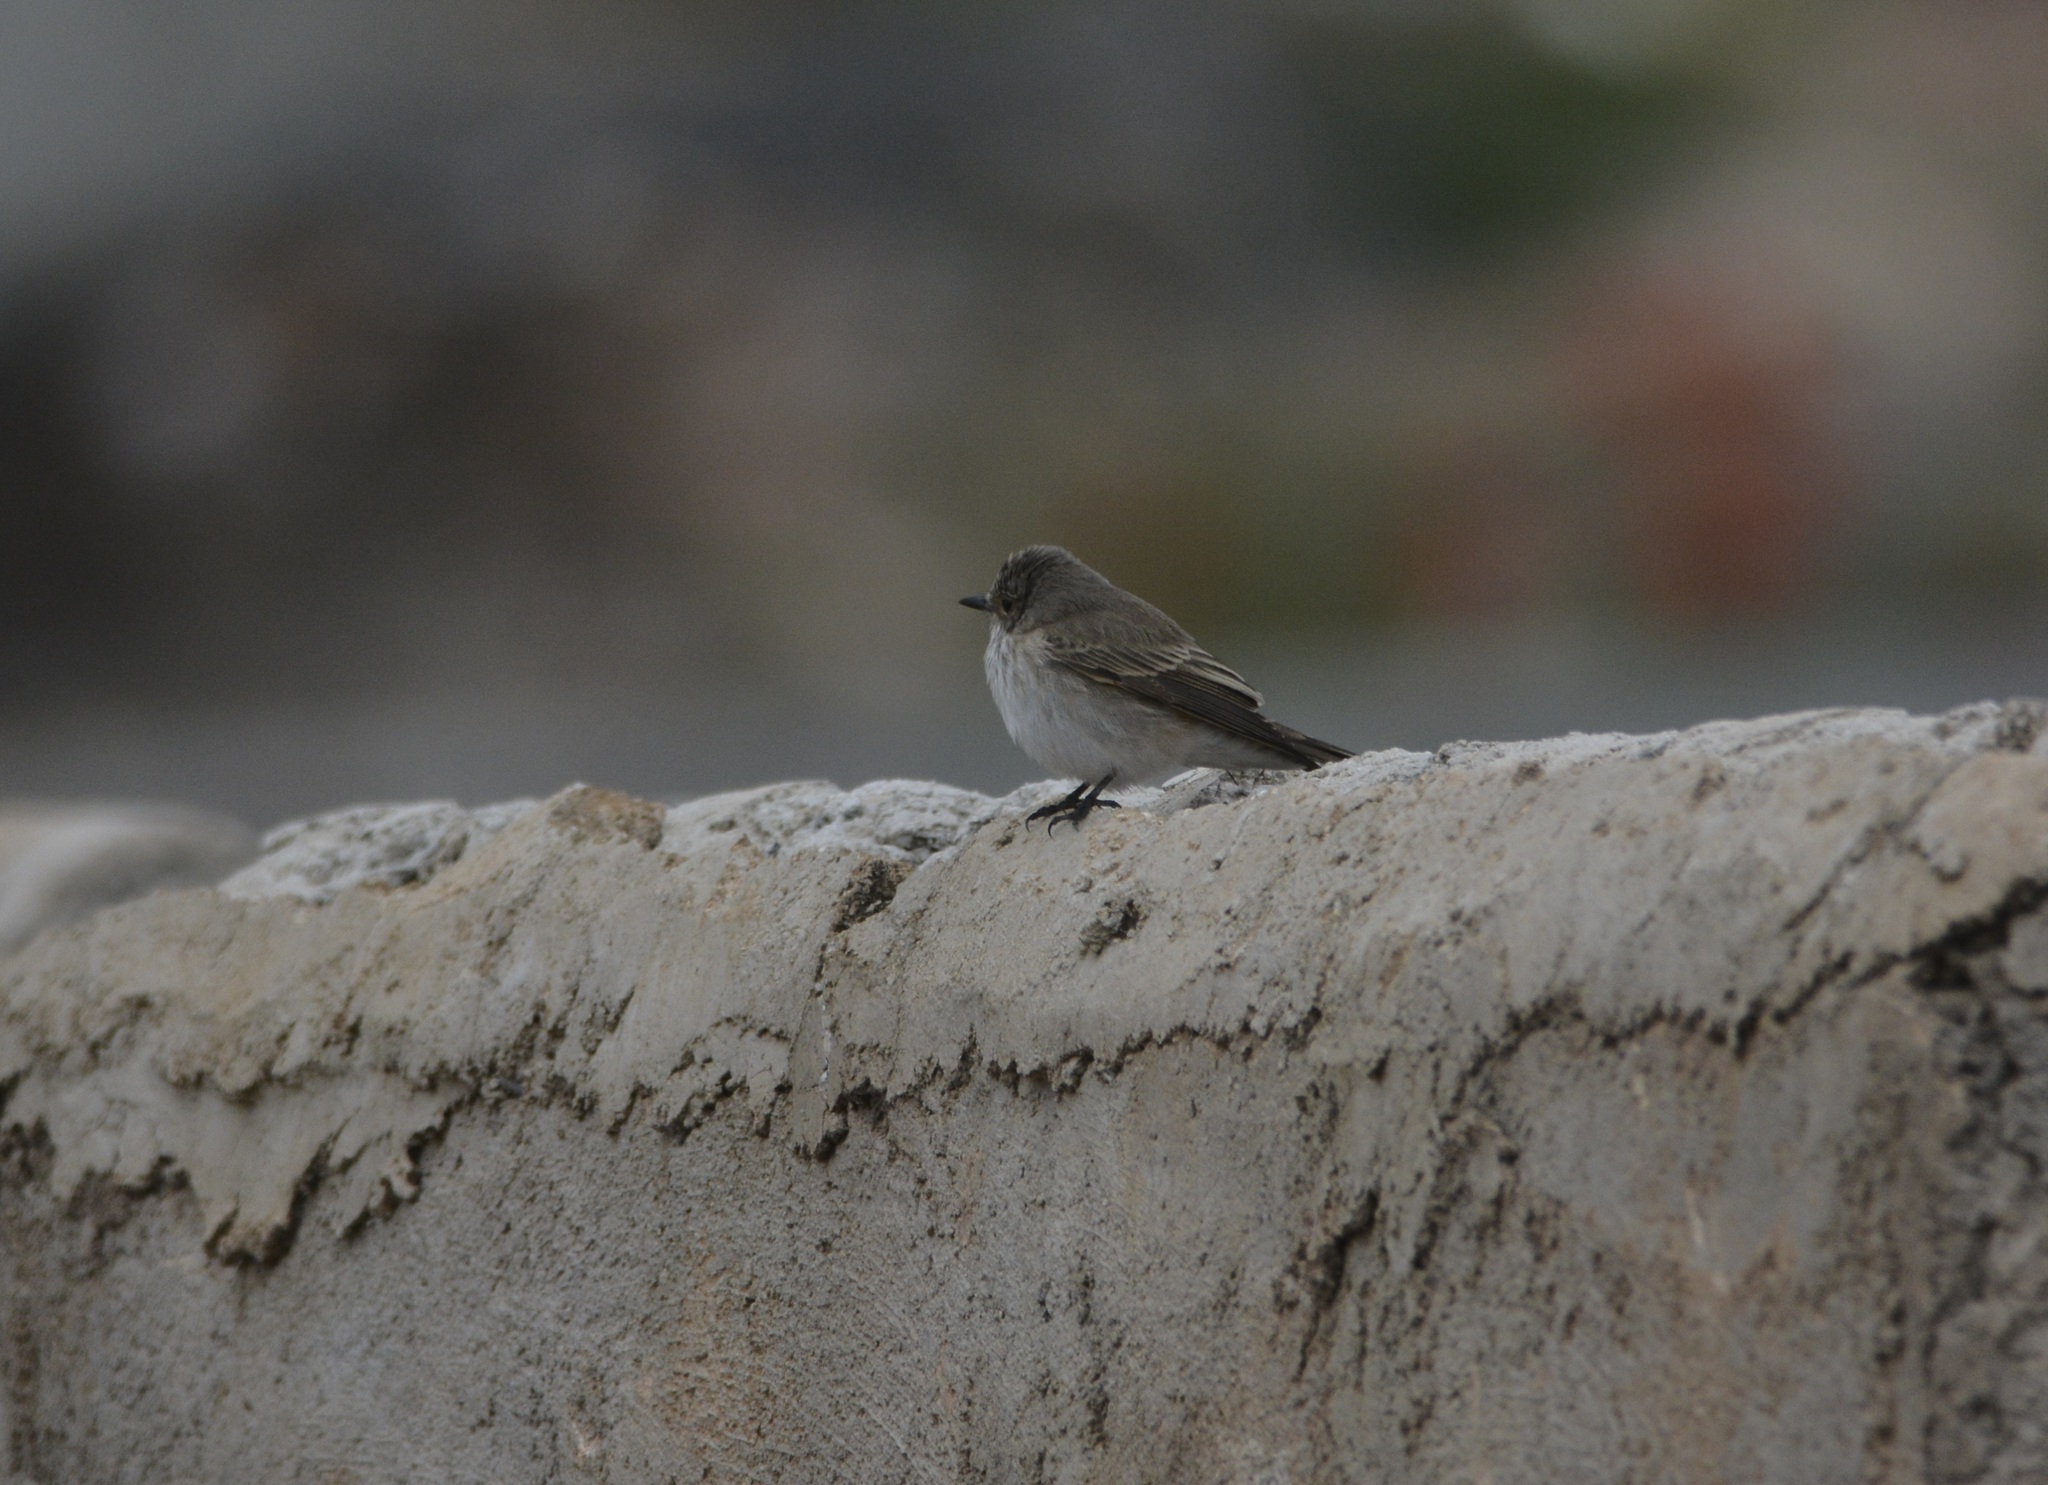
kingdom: Animalia
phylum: Chordata
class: Aves
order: Passeriformes
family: Muscicapidae
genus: Muscicapa
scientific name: Muscicapa striata
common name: Spotted flycatcher
